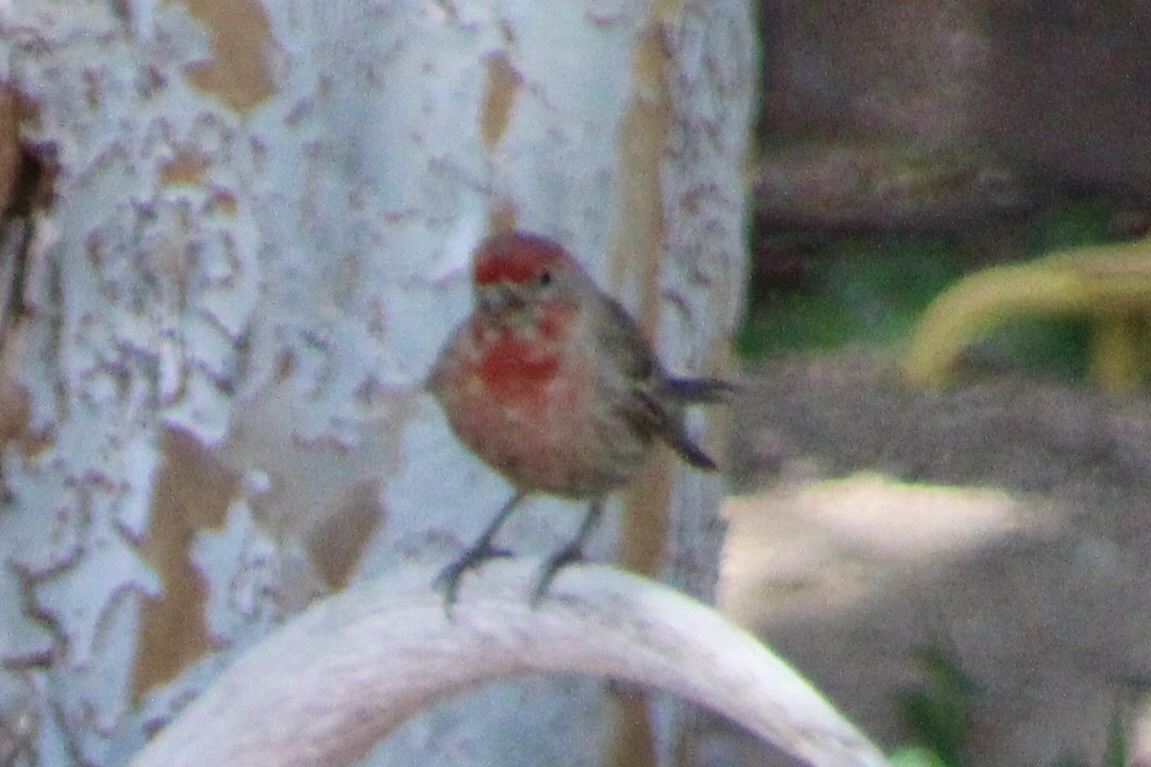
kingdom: Animalia
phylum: Chordata
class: Aves
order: Passeriformes
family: Fringillidae
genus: Haemorhous
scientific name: Haemorhous mexicanus
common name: House finch
